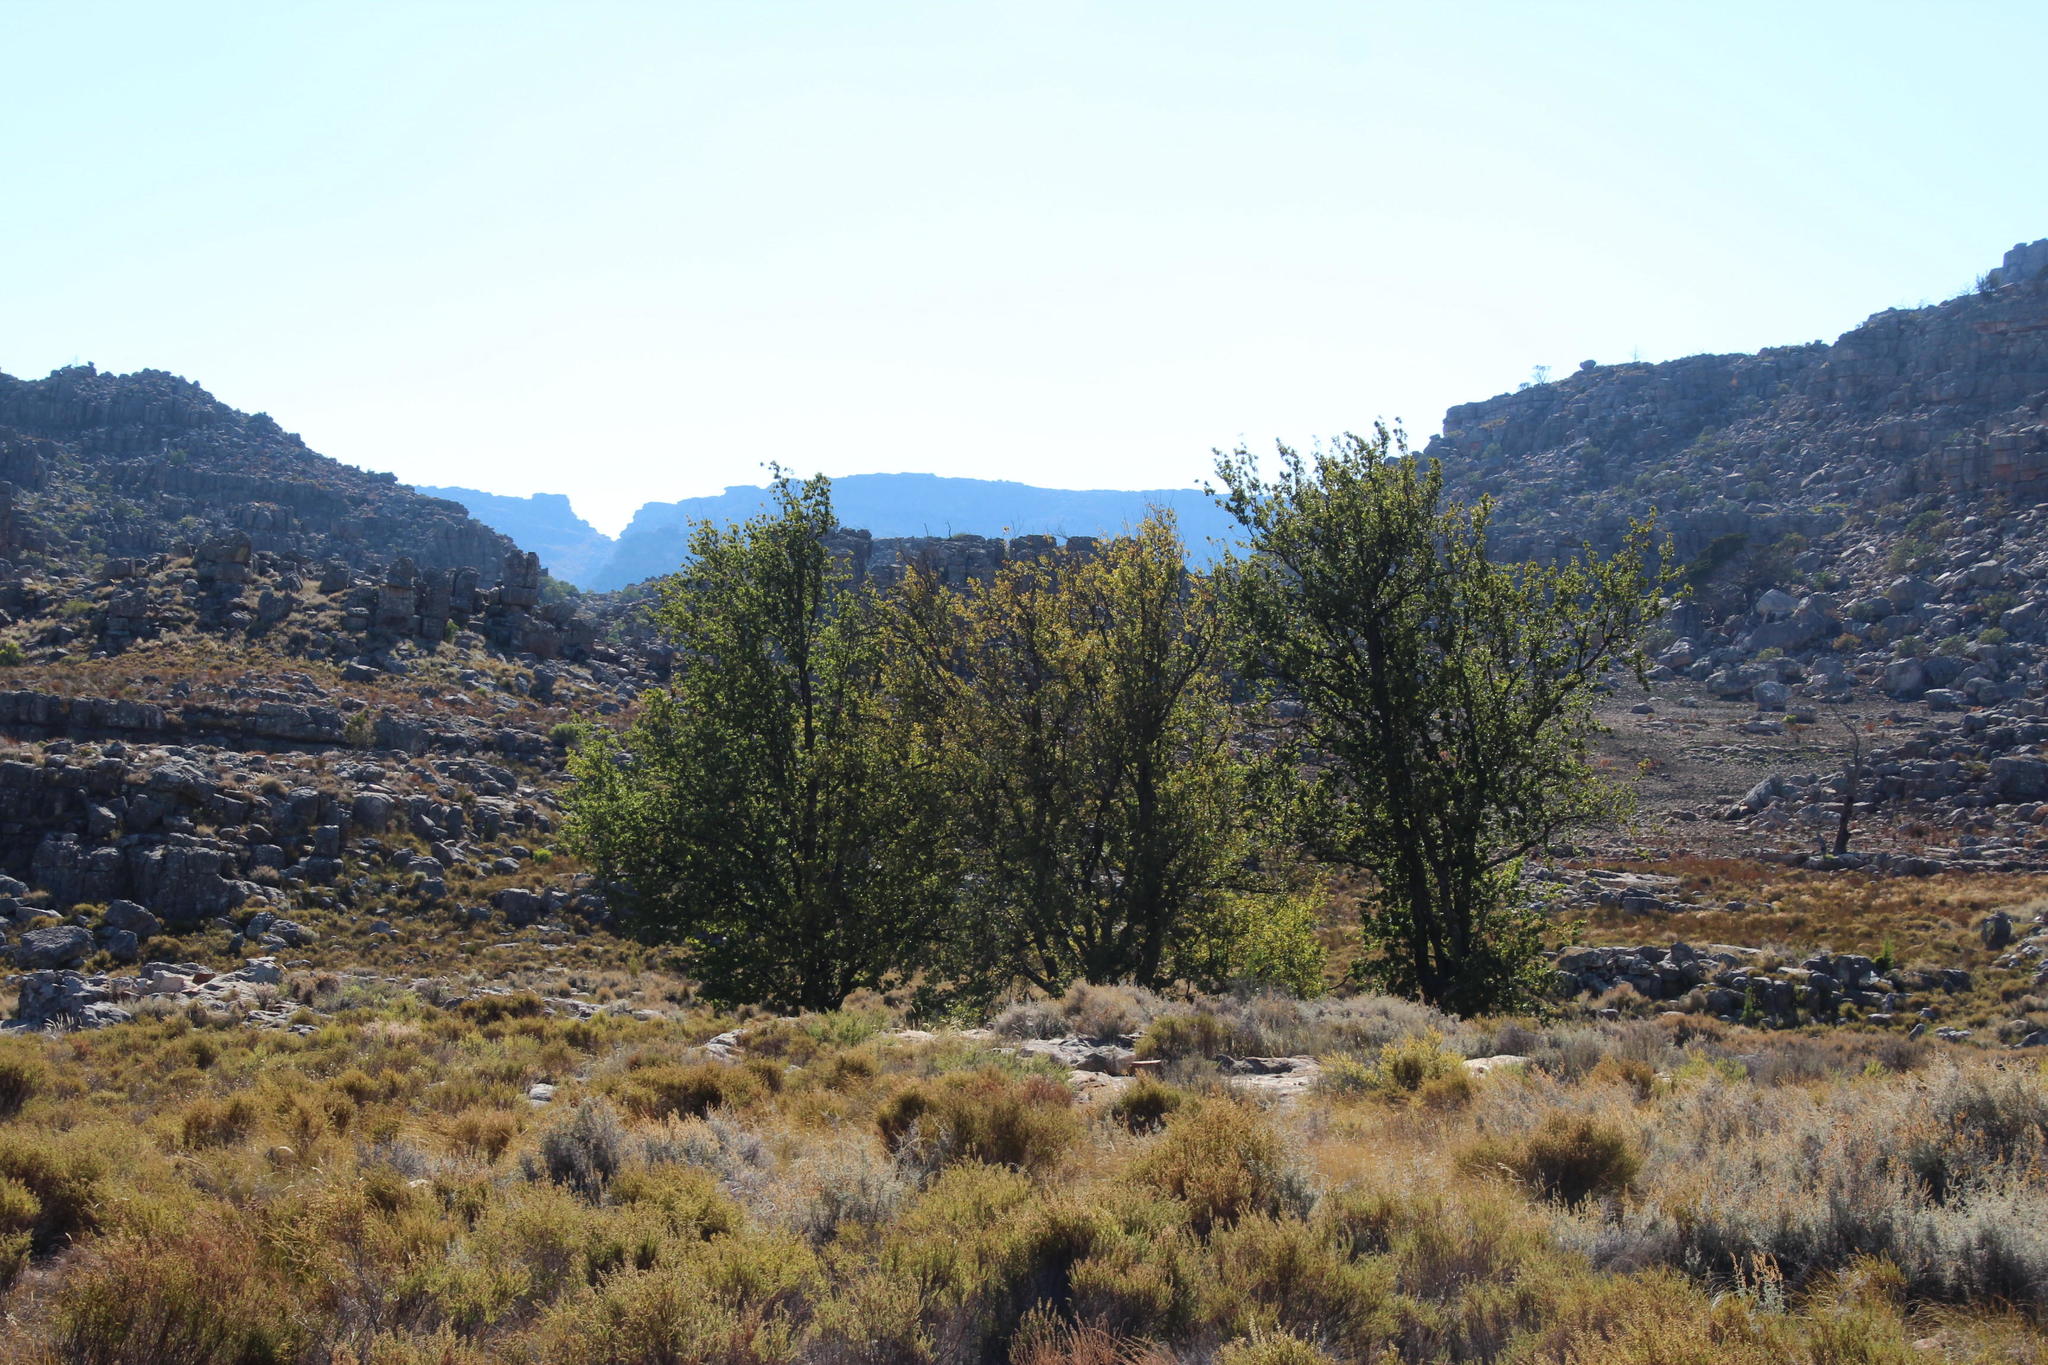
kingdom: Plantae
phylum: Tracheophyta
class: Magnoliopsida
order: Fagales
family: Fagaceae
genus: Quercus
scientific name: Quercus robur
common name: Pedunculate oak
